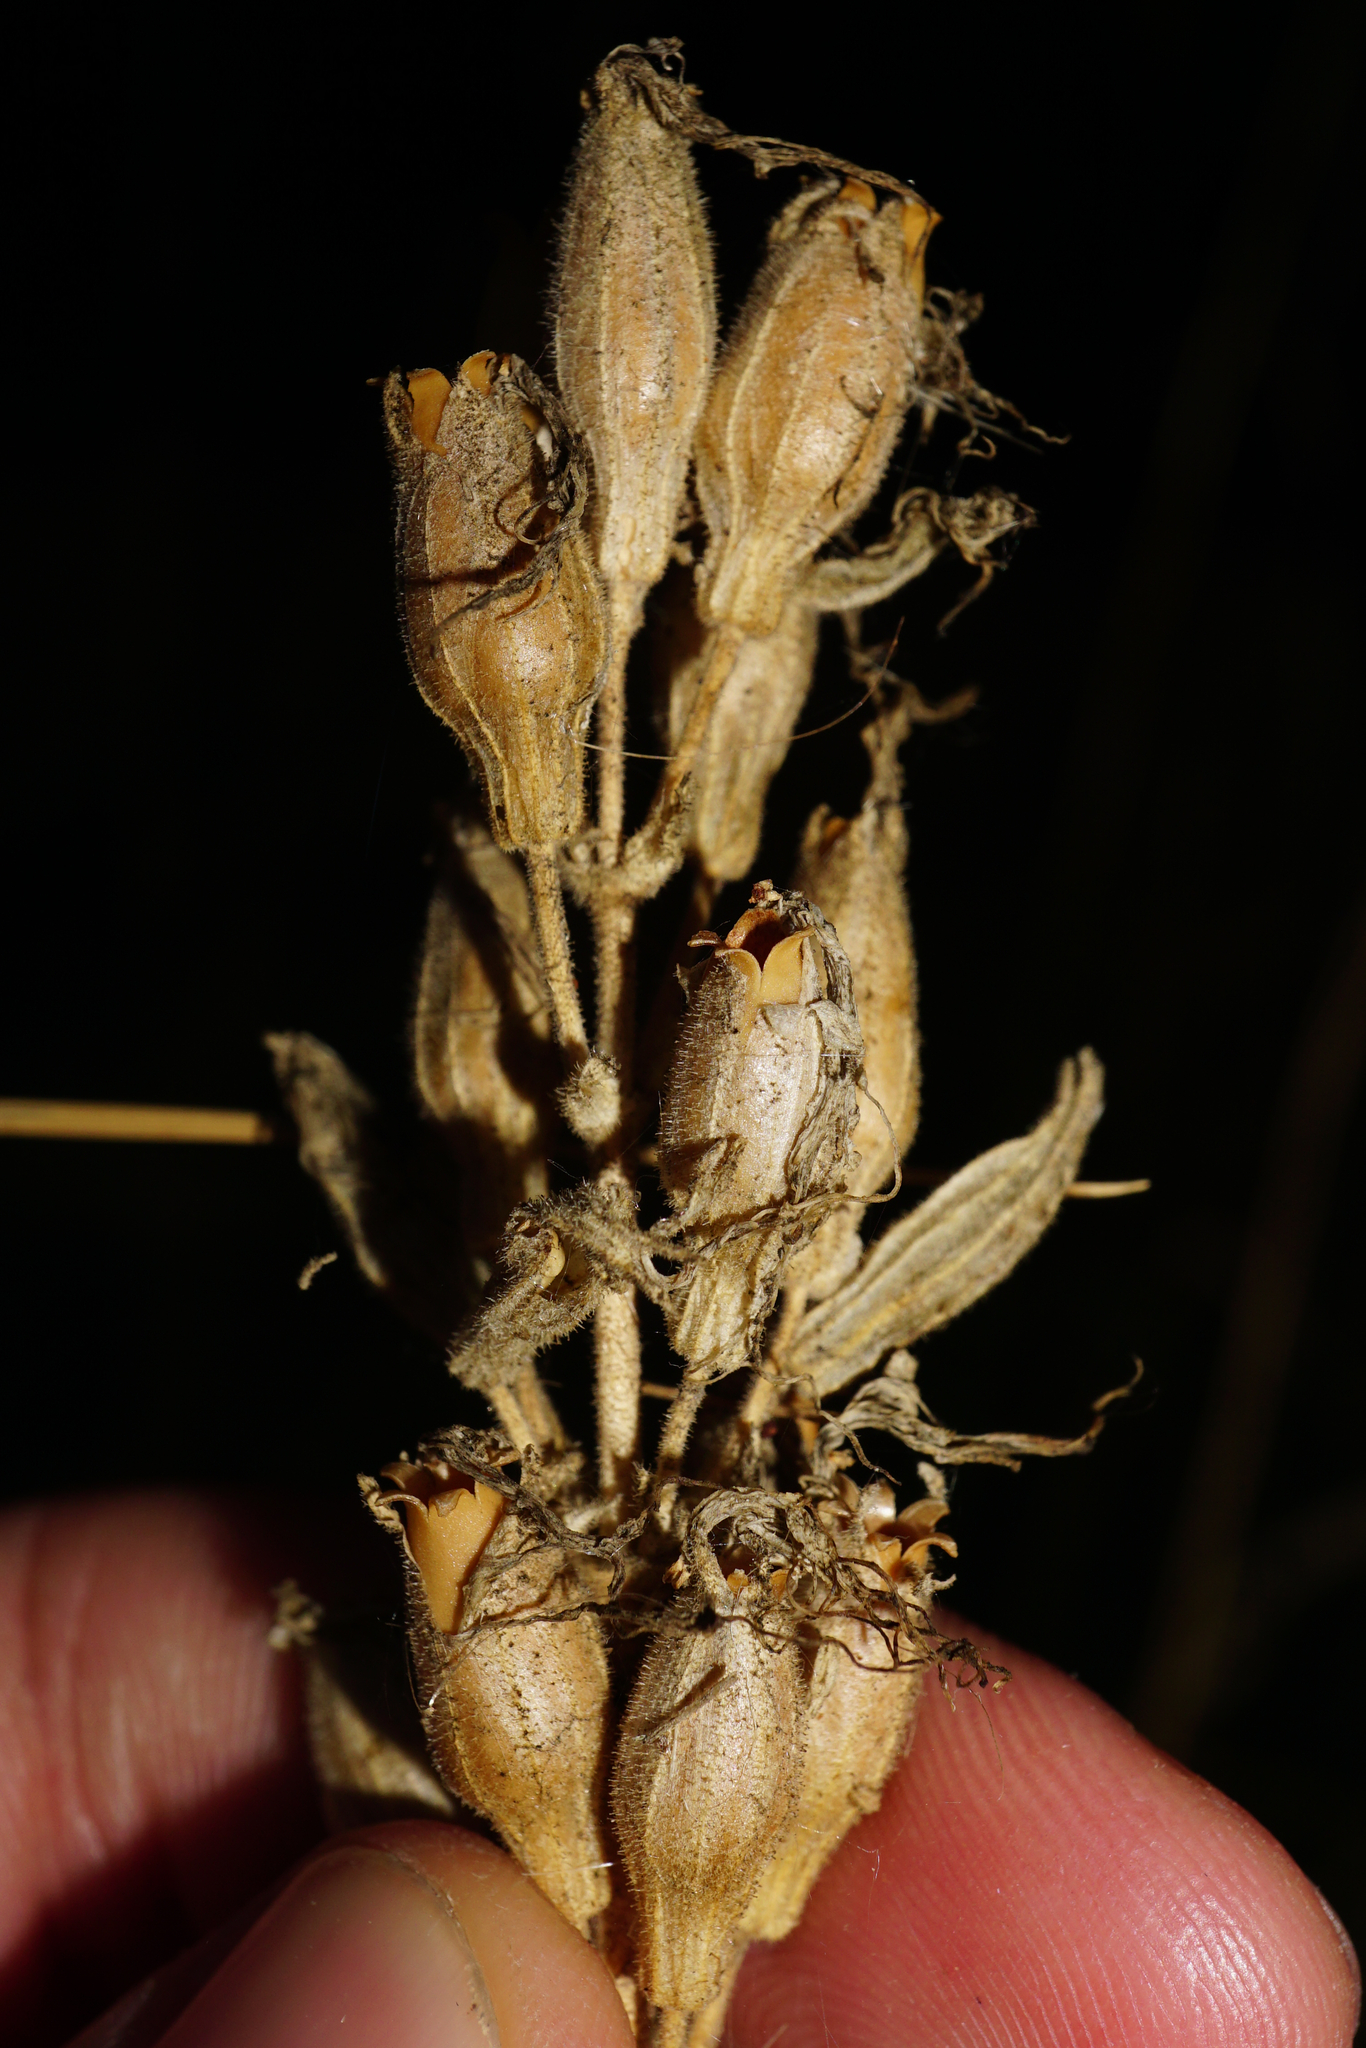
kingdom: Plantae
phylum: Tracheophyta
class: Magnoliopsida
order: Caryophyllales
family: Caryophyllaceae
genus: Silene
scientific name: Silene viscosa
